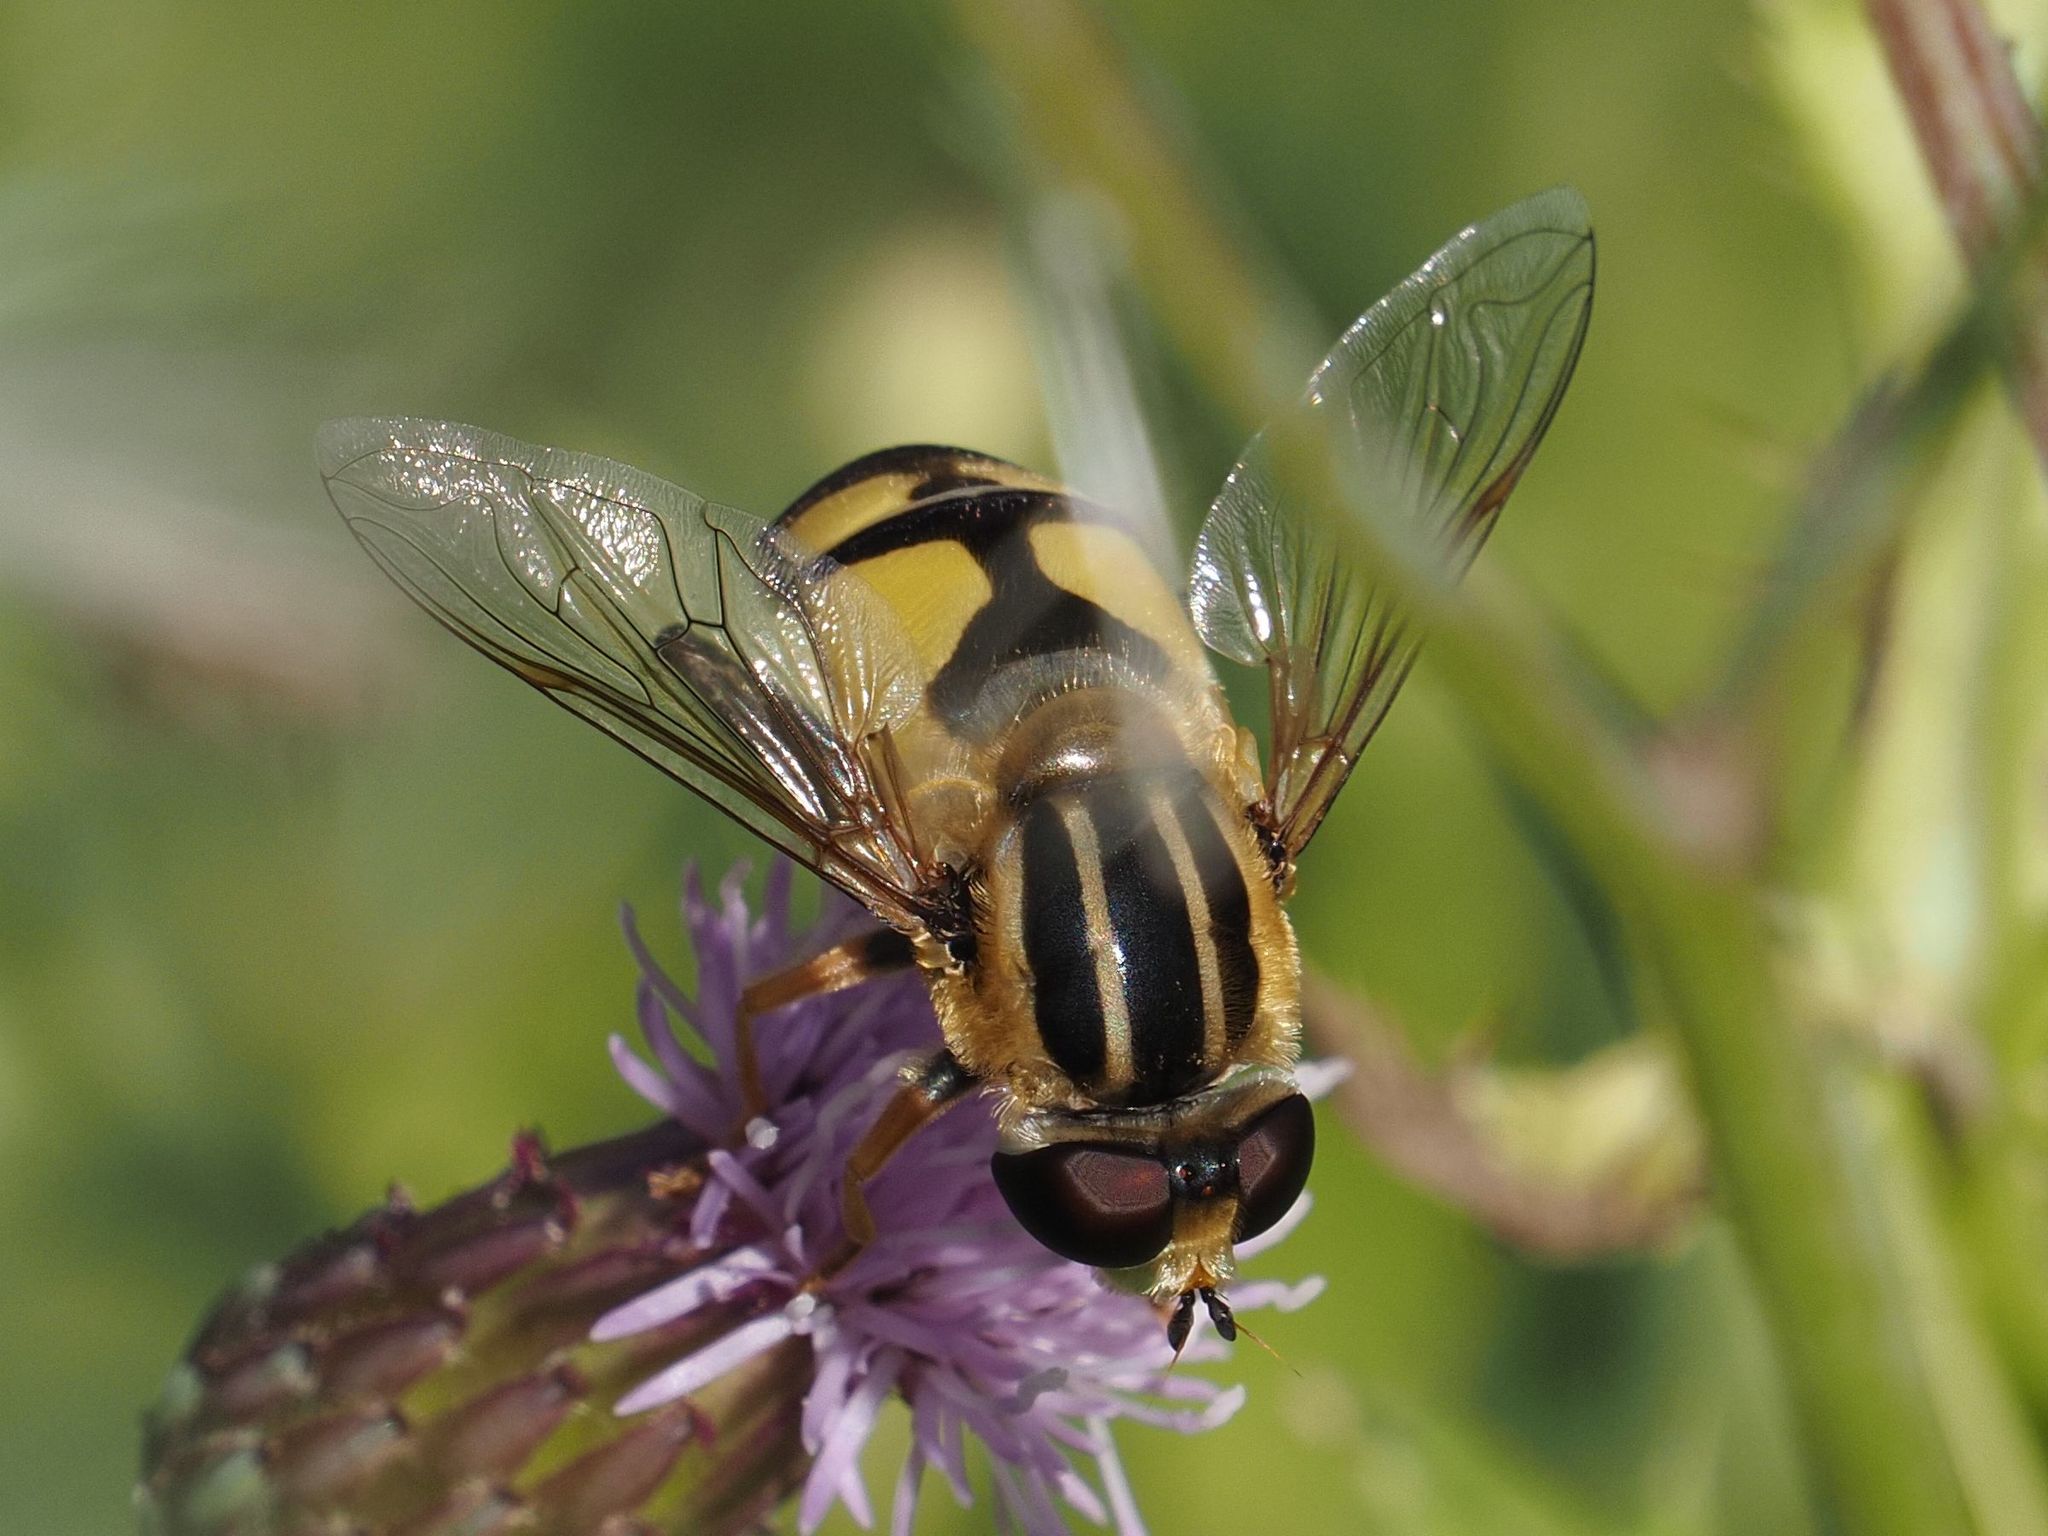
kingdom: Animalia
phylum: Arthropoda
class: Insecta
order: Diptera
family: Syrphidae
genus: Helophilus
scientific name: Helophilus trivittatus
